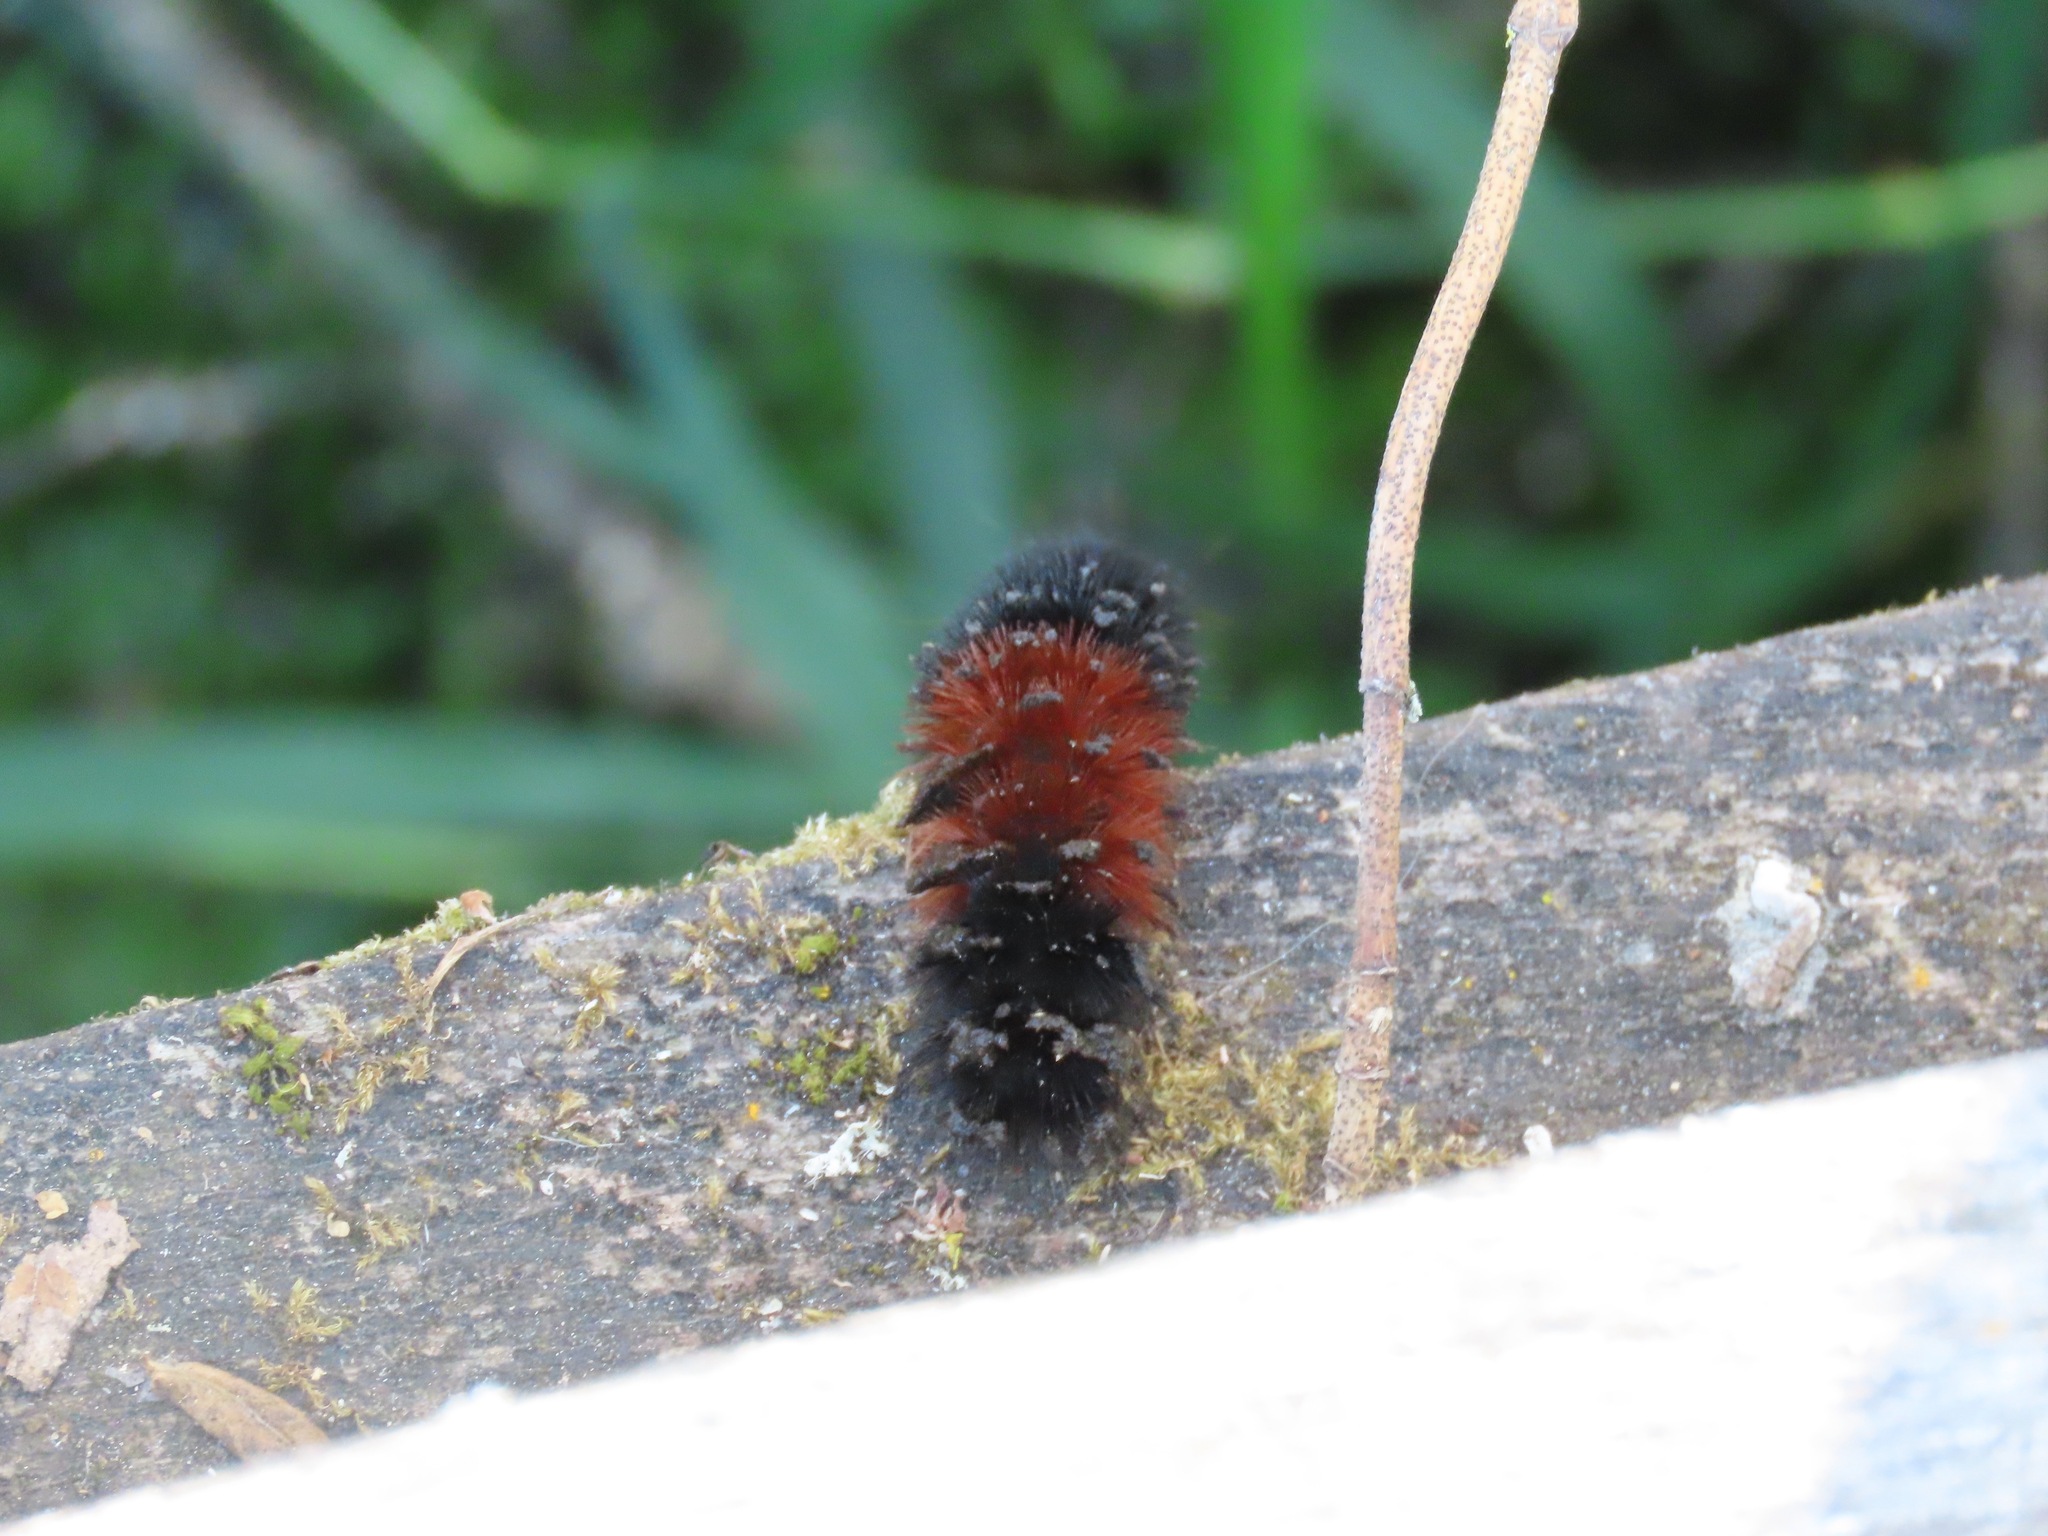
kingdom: Animalia
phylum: Arthropoda
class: Insecta
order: Lepidoptera
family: Erebidae
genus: Pyrrharctia
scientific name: Pyrrharctia isabella
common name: Isabella tiger moth
